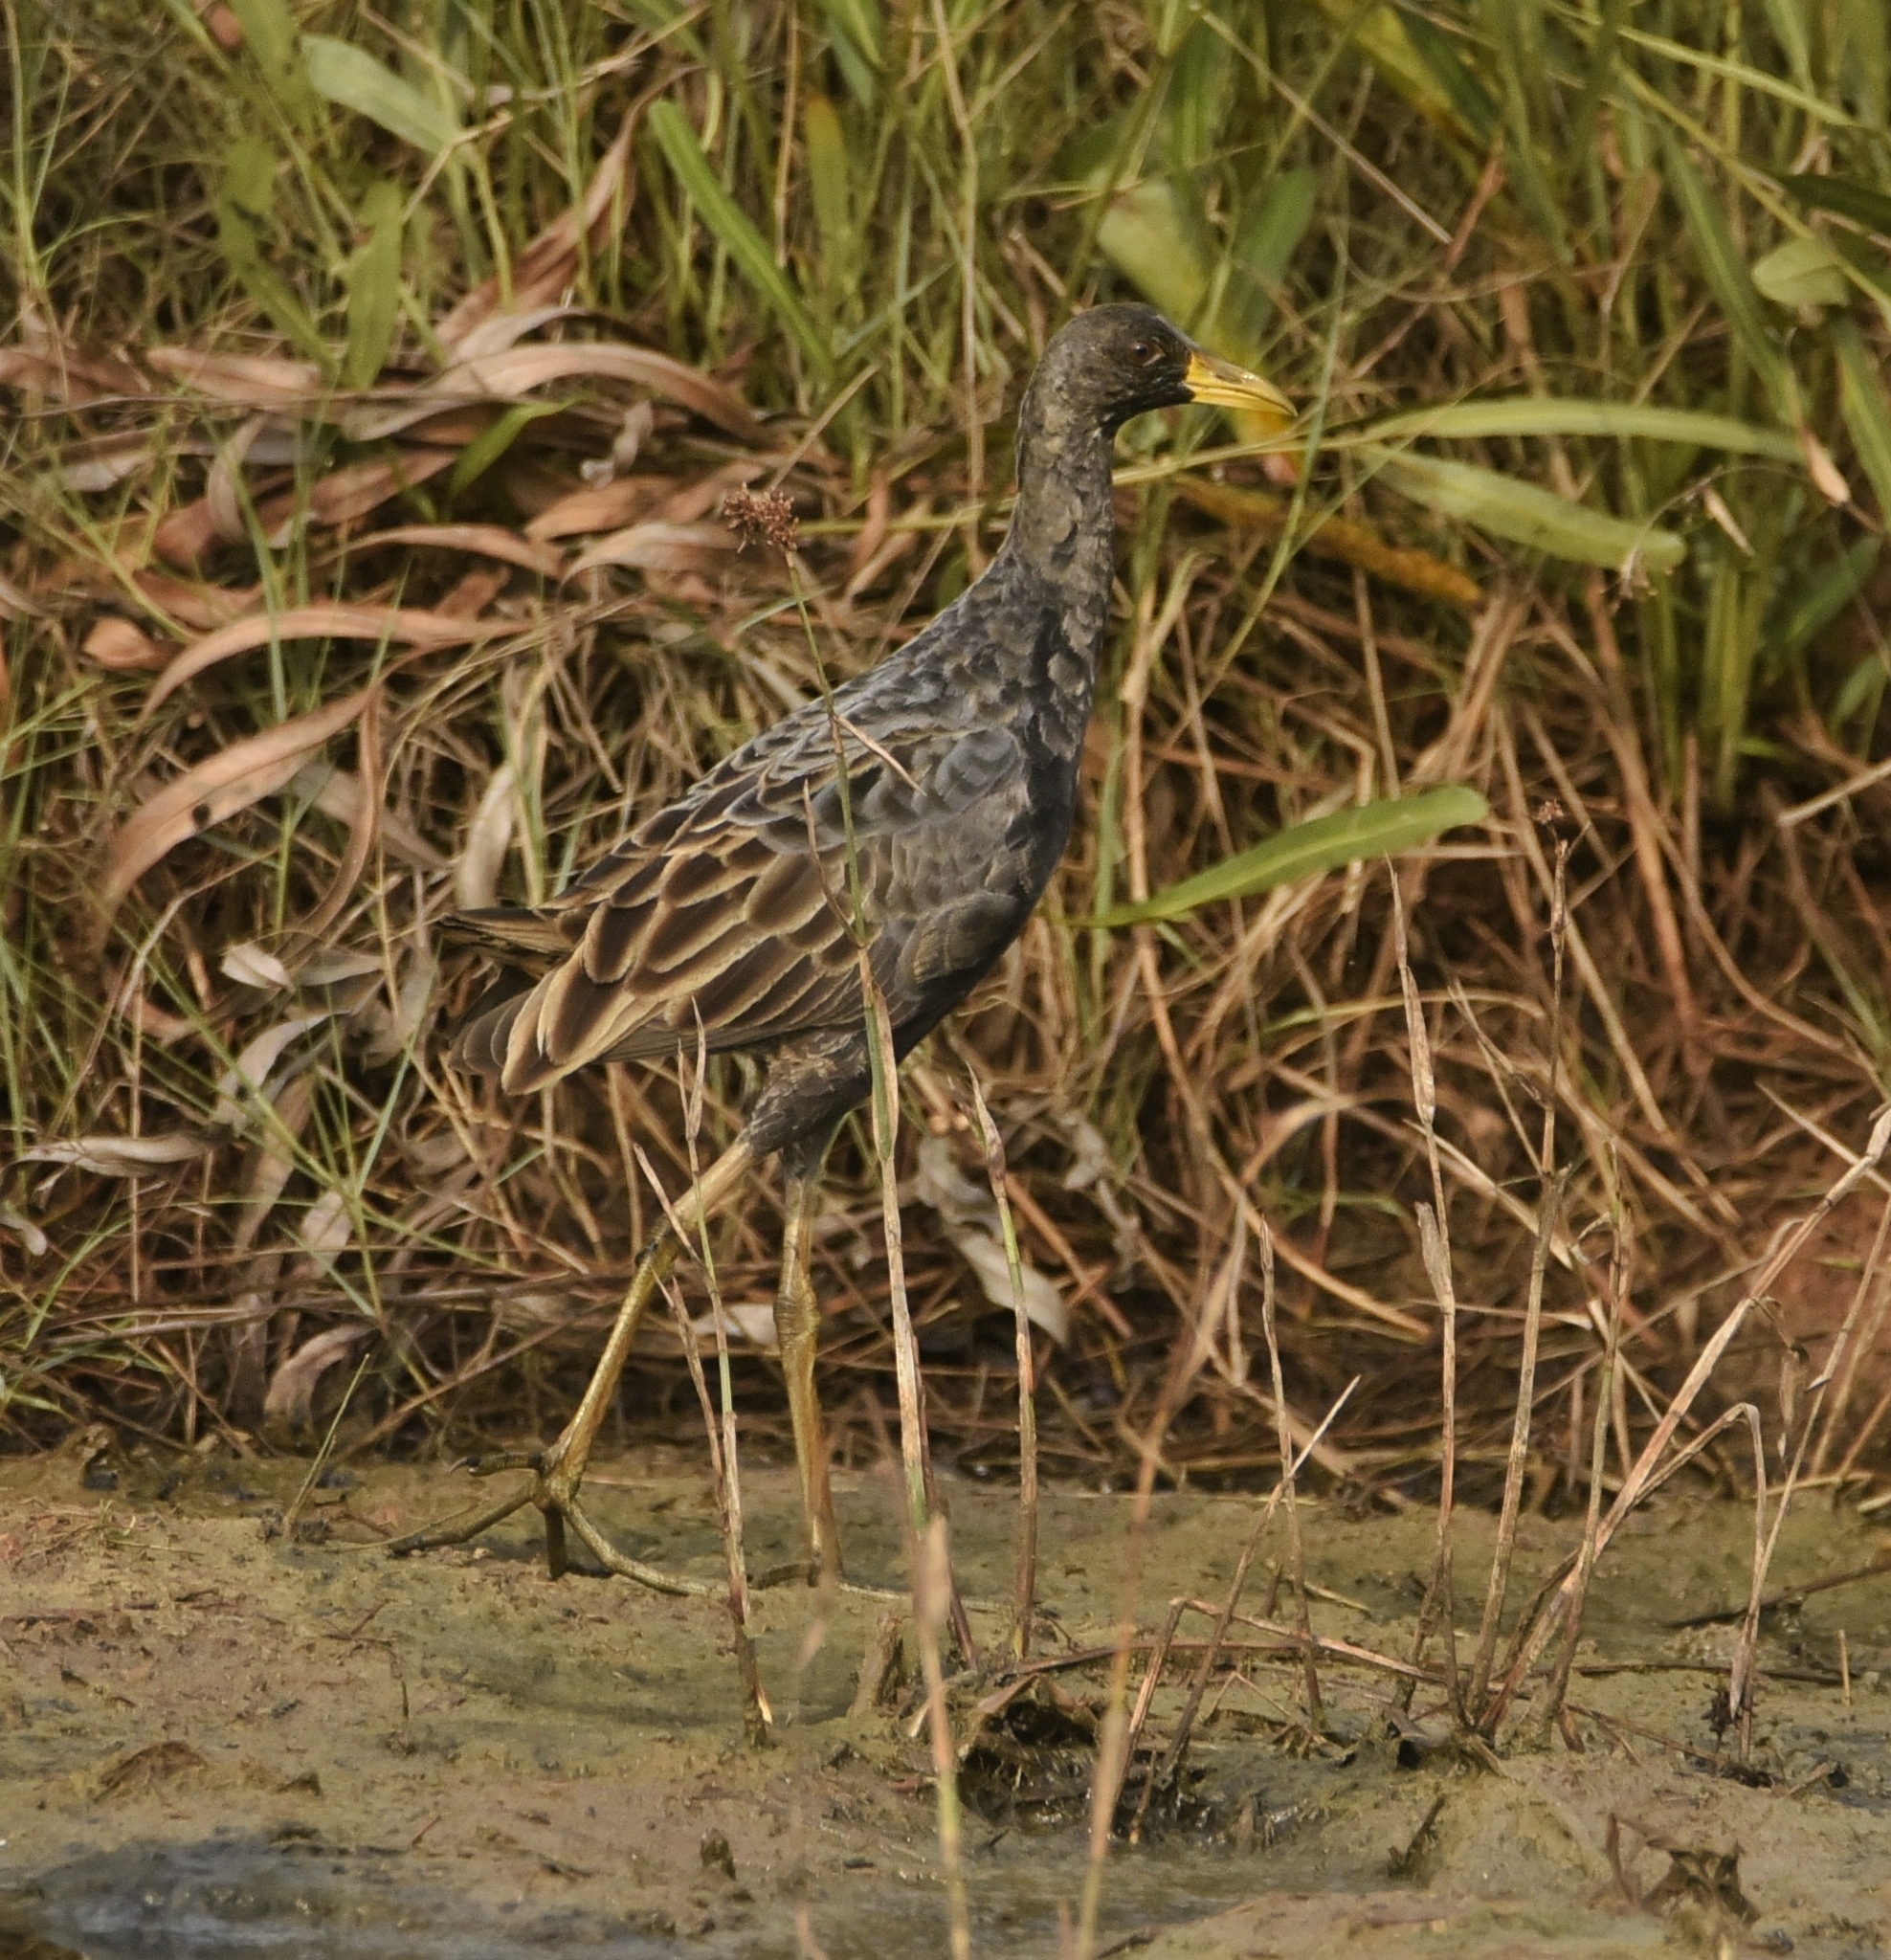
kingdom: Animalia
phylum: Chordata
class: Aves
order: Gruiformes
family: Rallidae
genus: Gallicrex
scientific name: Gallicrex cinerea
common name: Watercock
